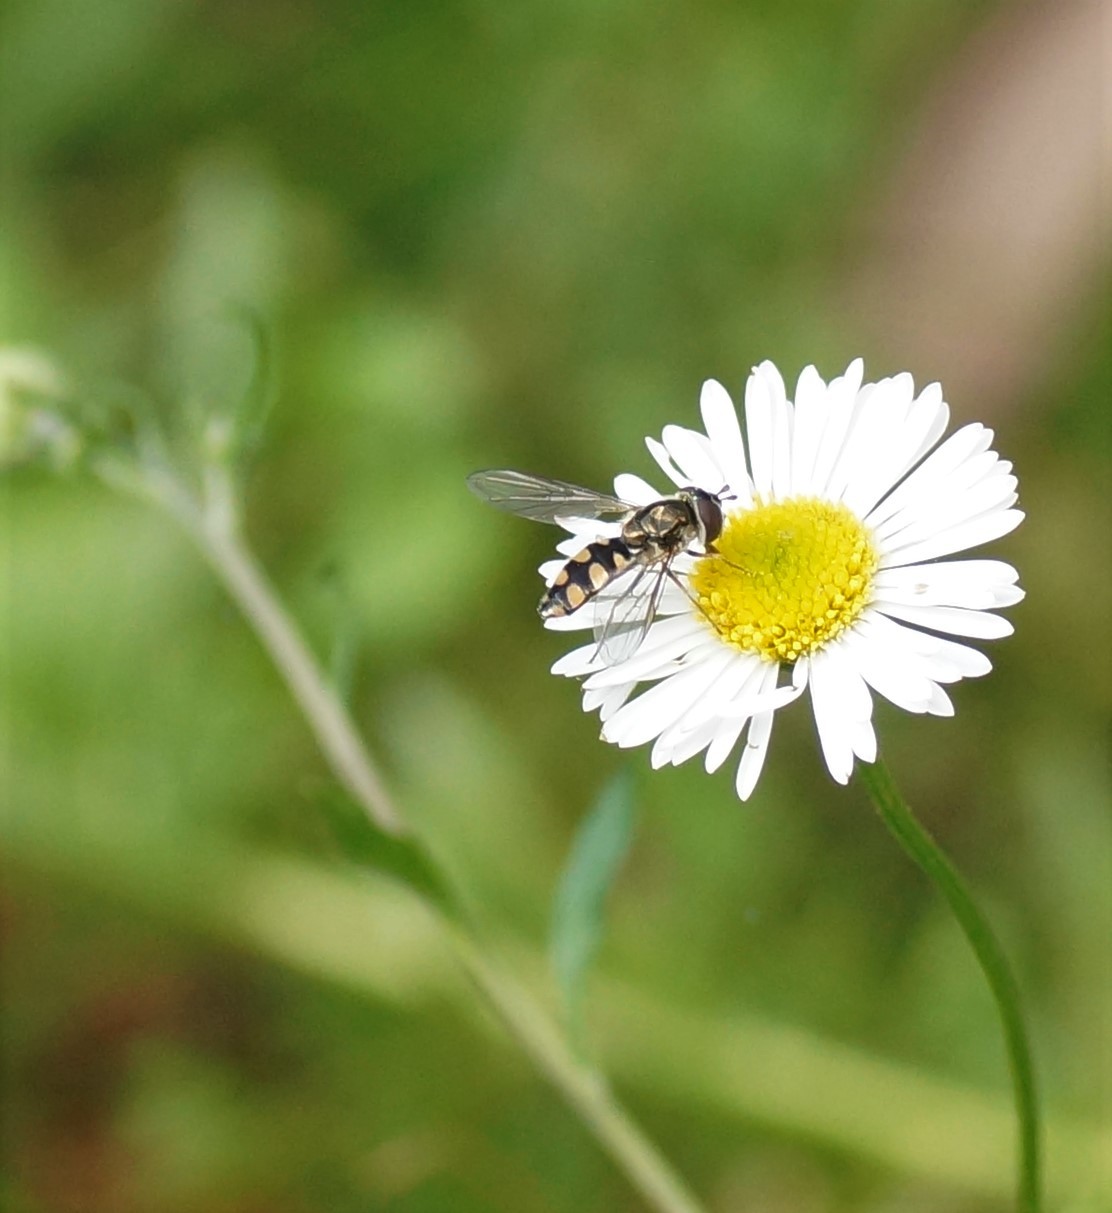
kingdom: Animalia
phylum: Arthropoda
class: Insecta
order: Diptera
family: Syrphidae
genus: Melangyna
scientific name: Melangyna viridiceps
